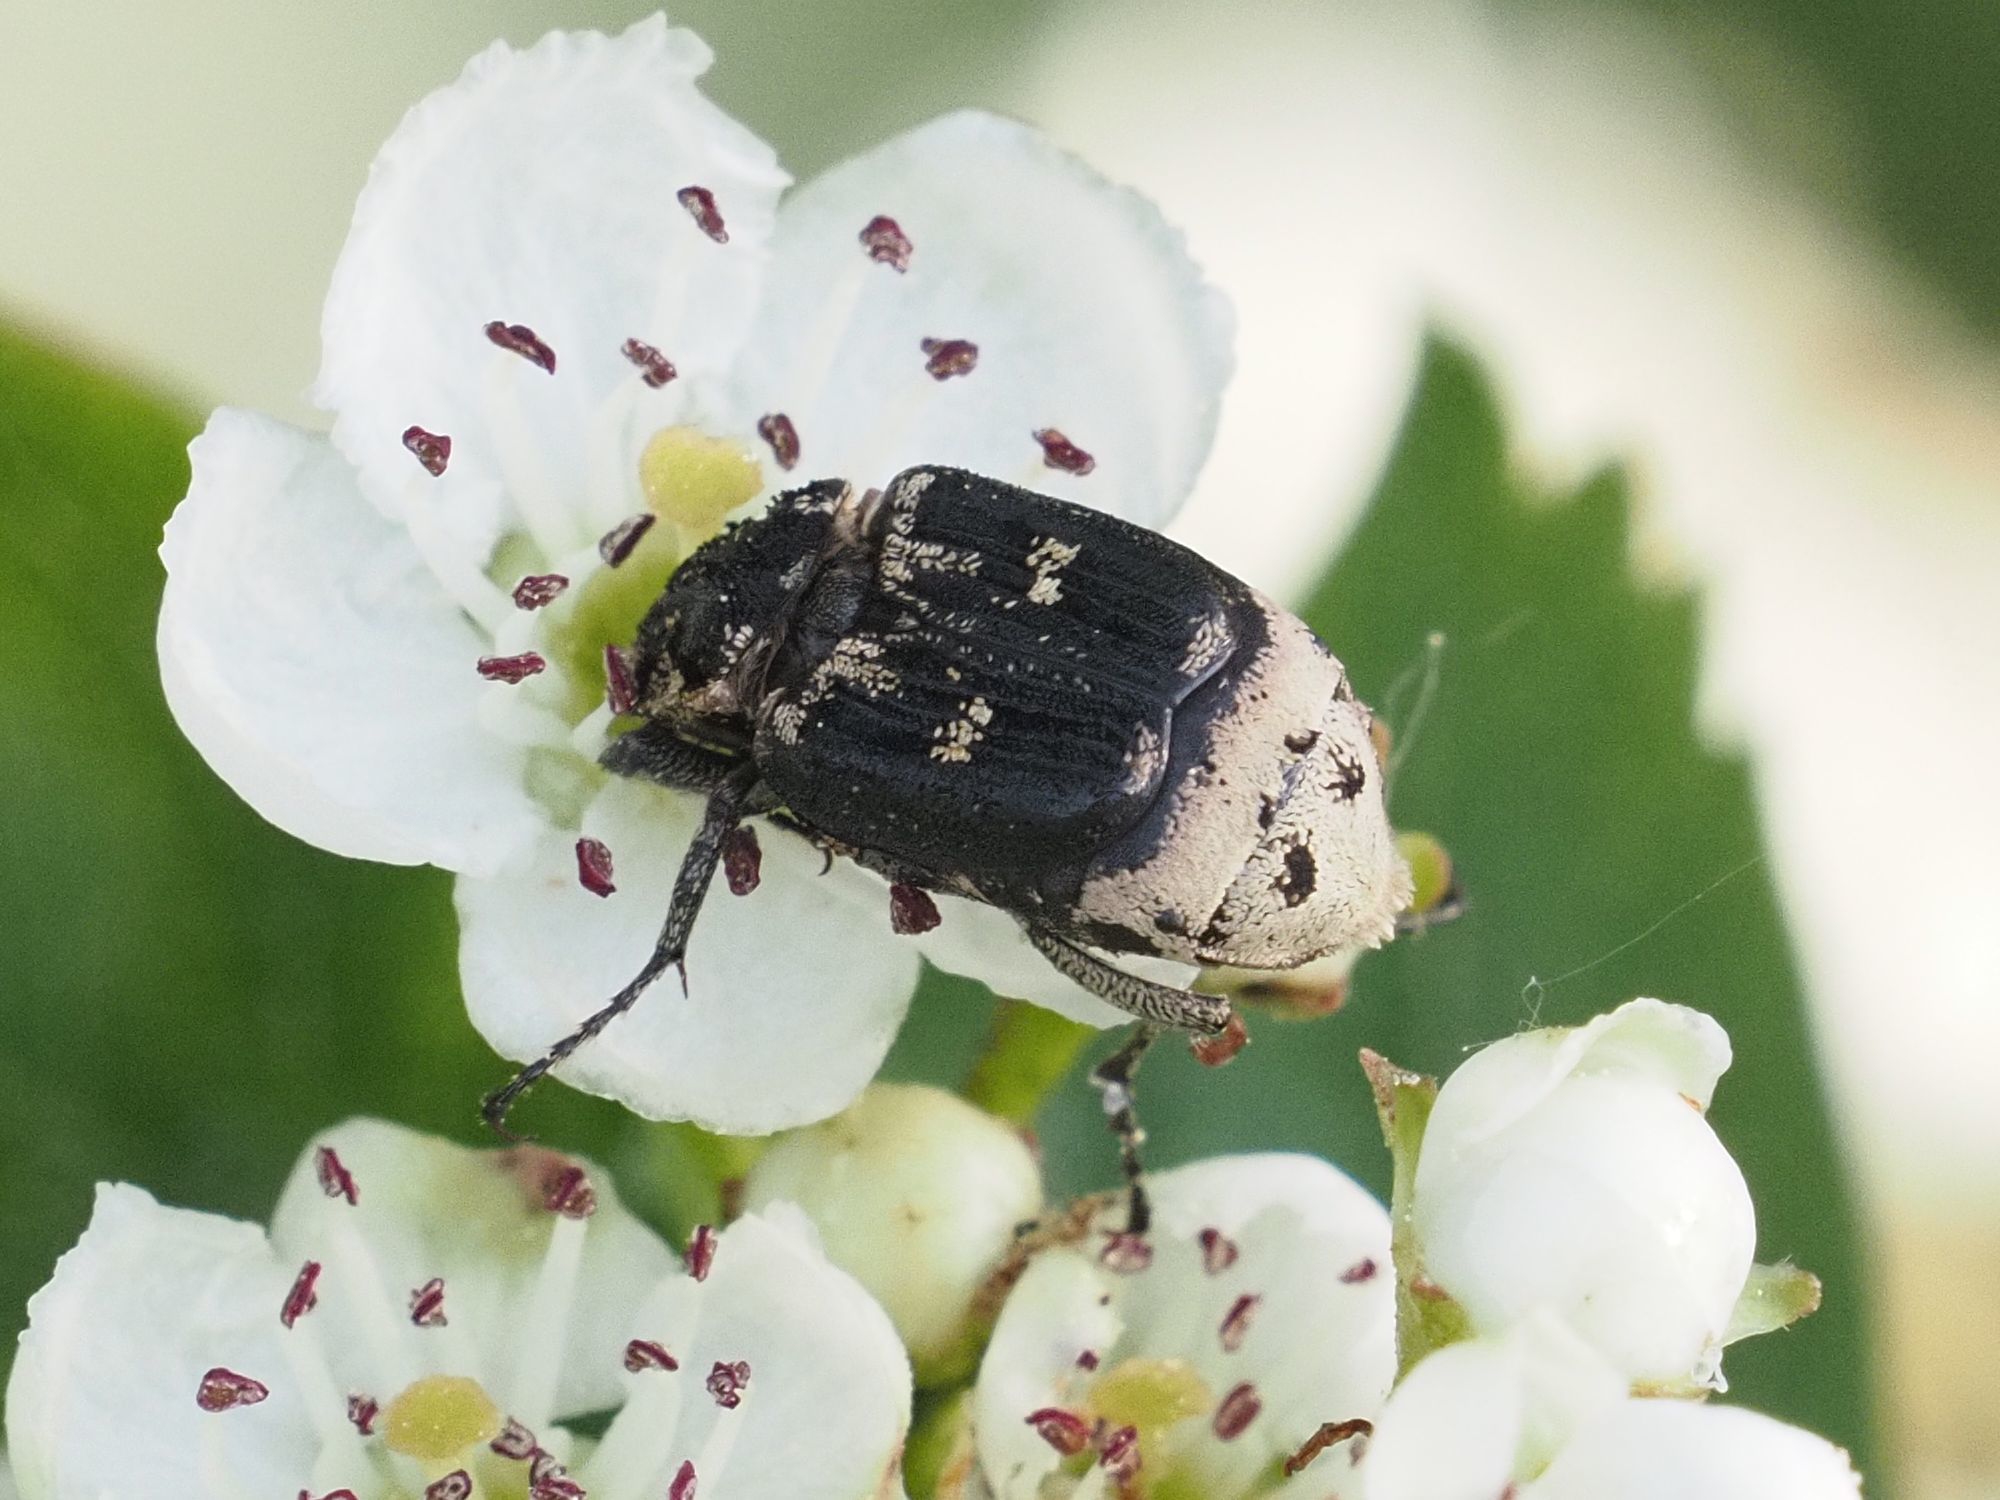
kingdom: Animalia
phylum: Arthropoda
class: Insecta
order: Coleoptera
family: Scarabaeidae
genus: Valgus
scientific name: Valgus hemipterus
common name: Bug flower chafer
